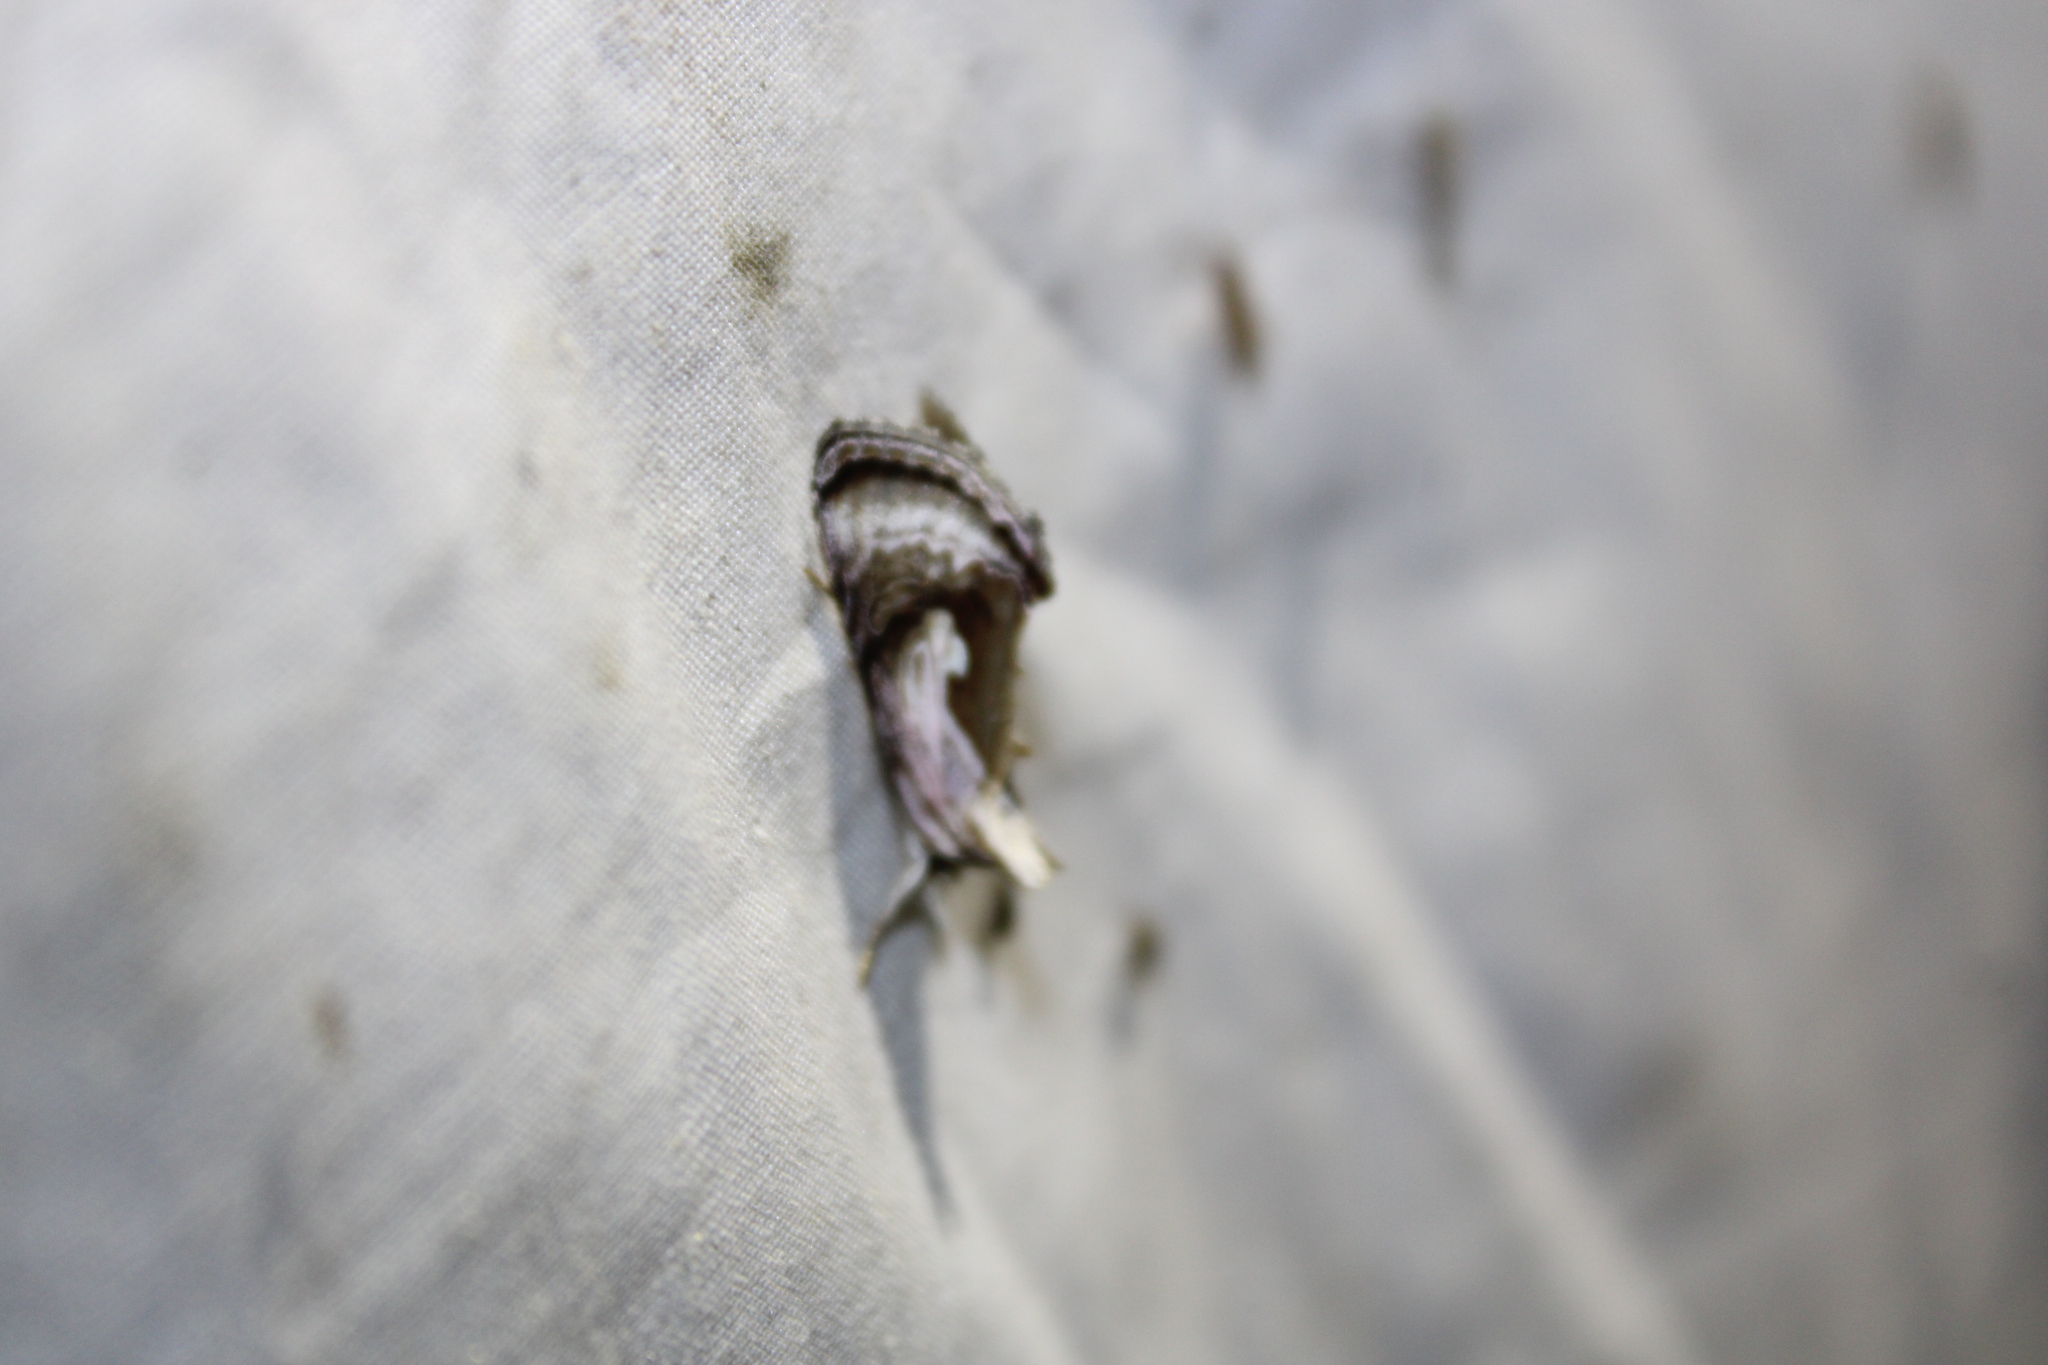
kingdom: Animalia
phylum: Arthropoda
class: Insecta
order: Lepidoptera
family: Noctuidae
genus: Chrysanympha
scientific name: Chrysanympha formosa
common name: Formosa looper moth
